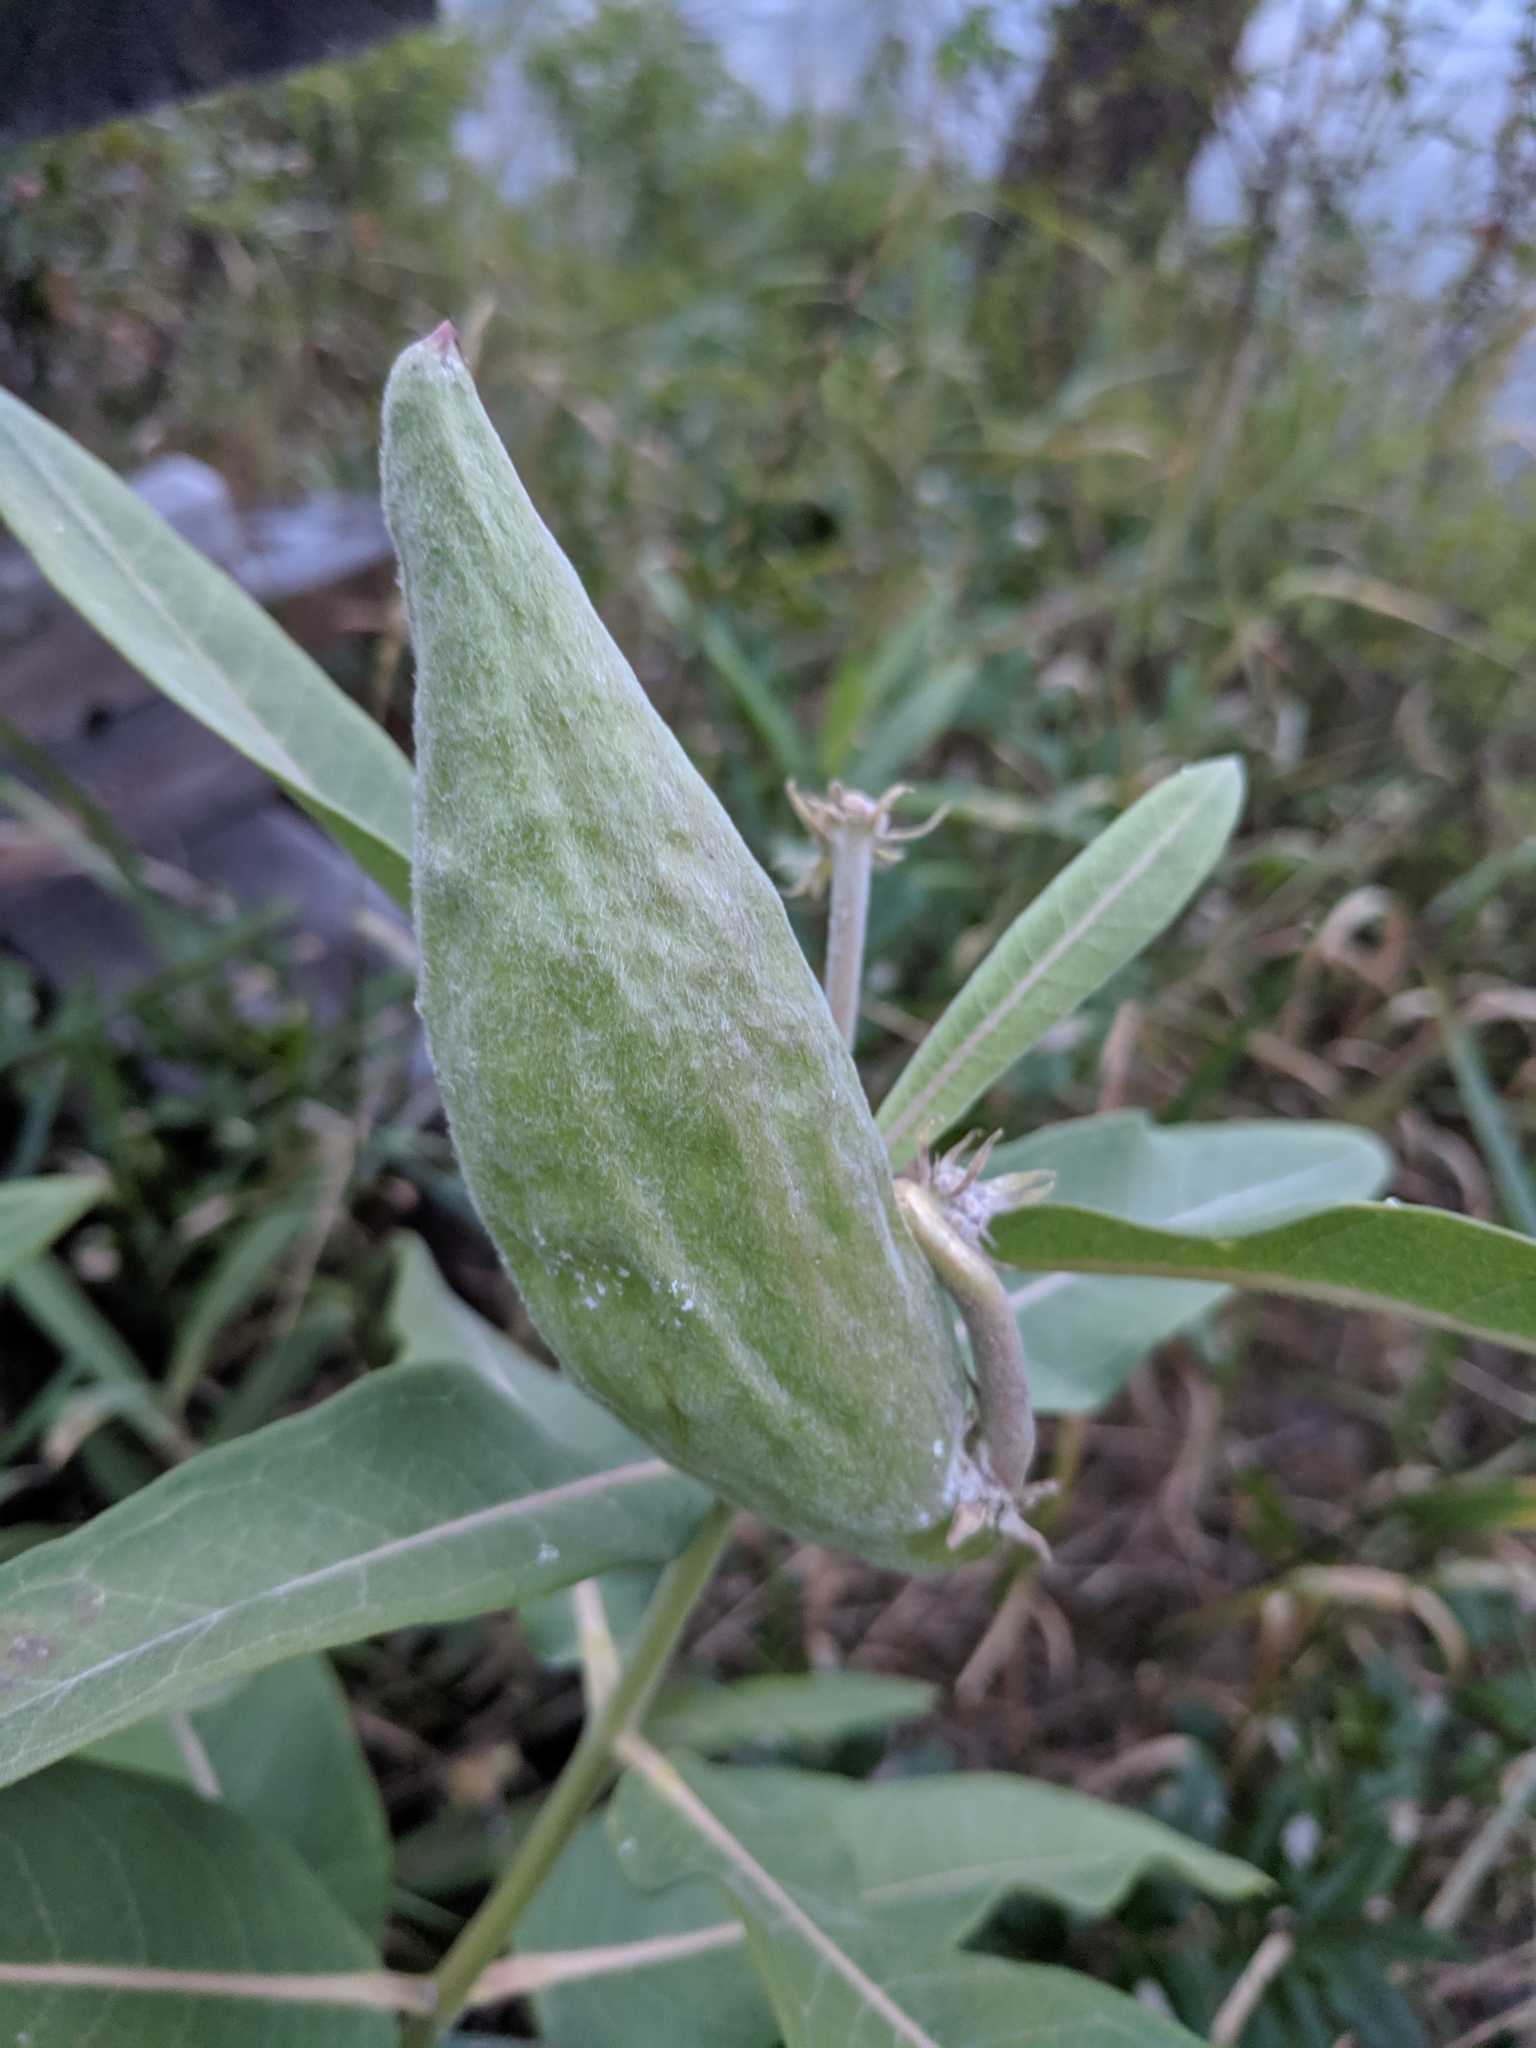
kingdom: Plantae
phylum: Tracheophyta
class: Magnoliopsida
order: Gentianales
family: Apocynaceae
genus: Asclepias
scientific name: Asclepias speciosa
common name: Showy milkweed
